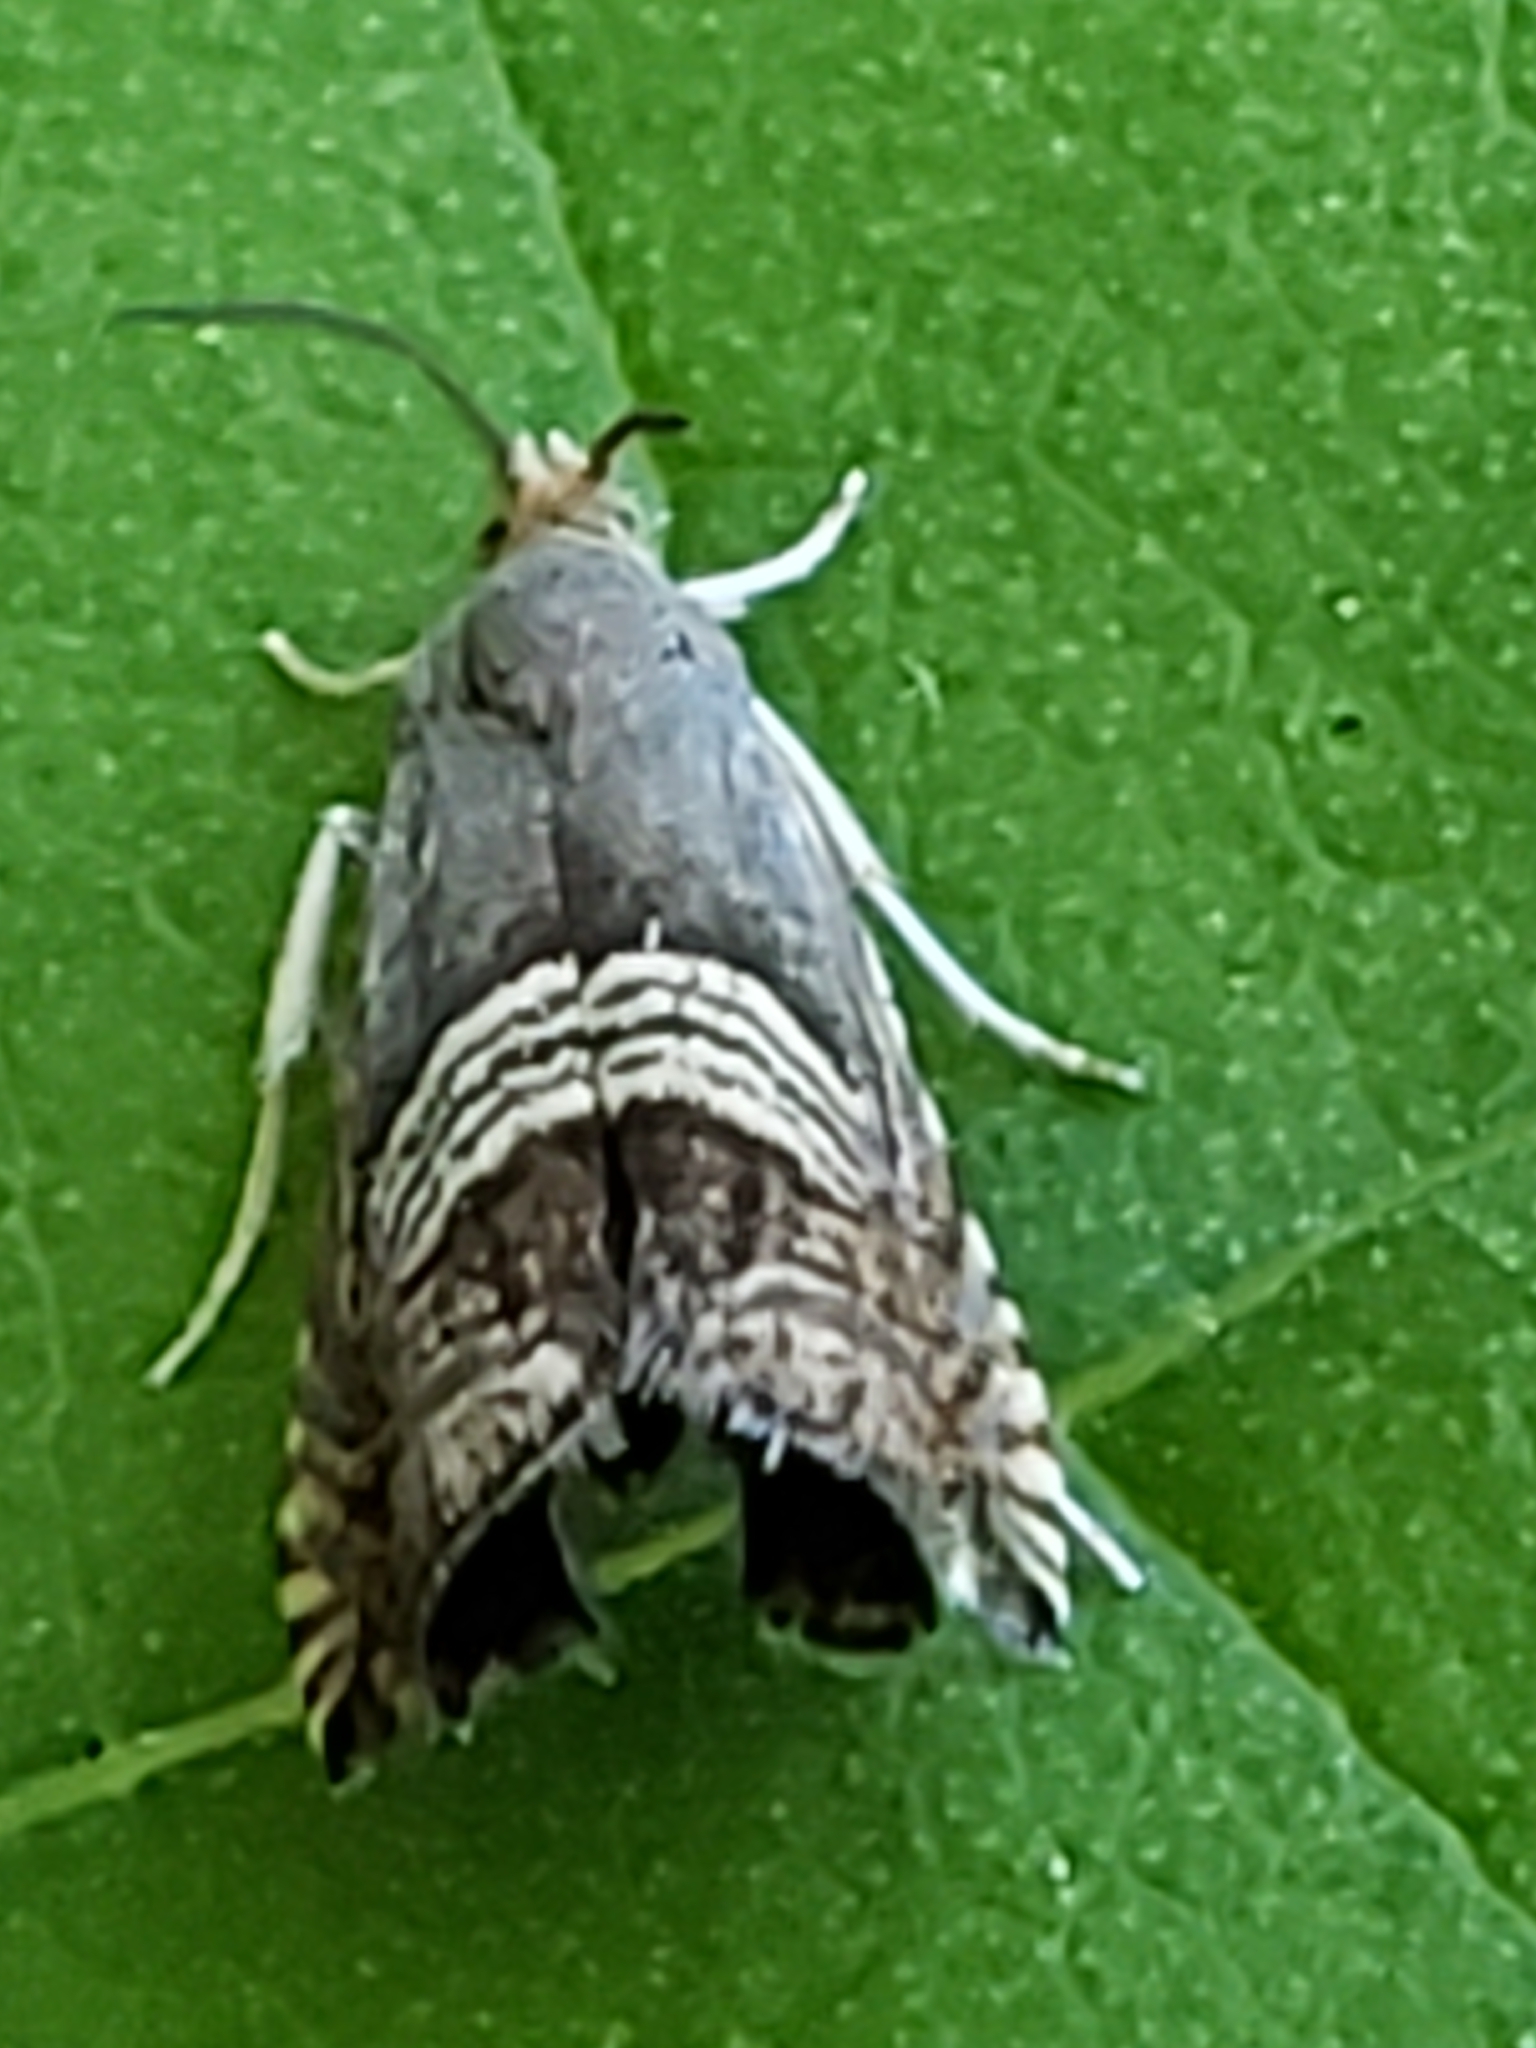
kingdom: Animalia
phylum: Arthropoda
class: Insecta
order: Lepidoptera
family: Tortricidae
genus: Grapholita
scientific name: Grapholita tristrigana
